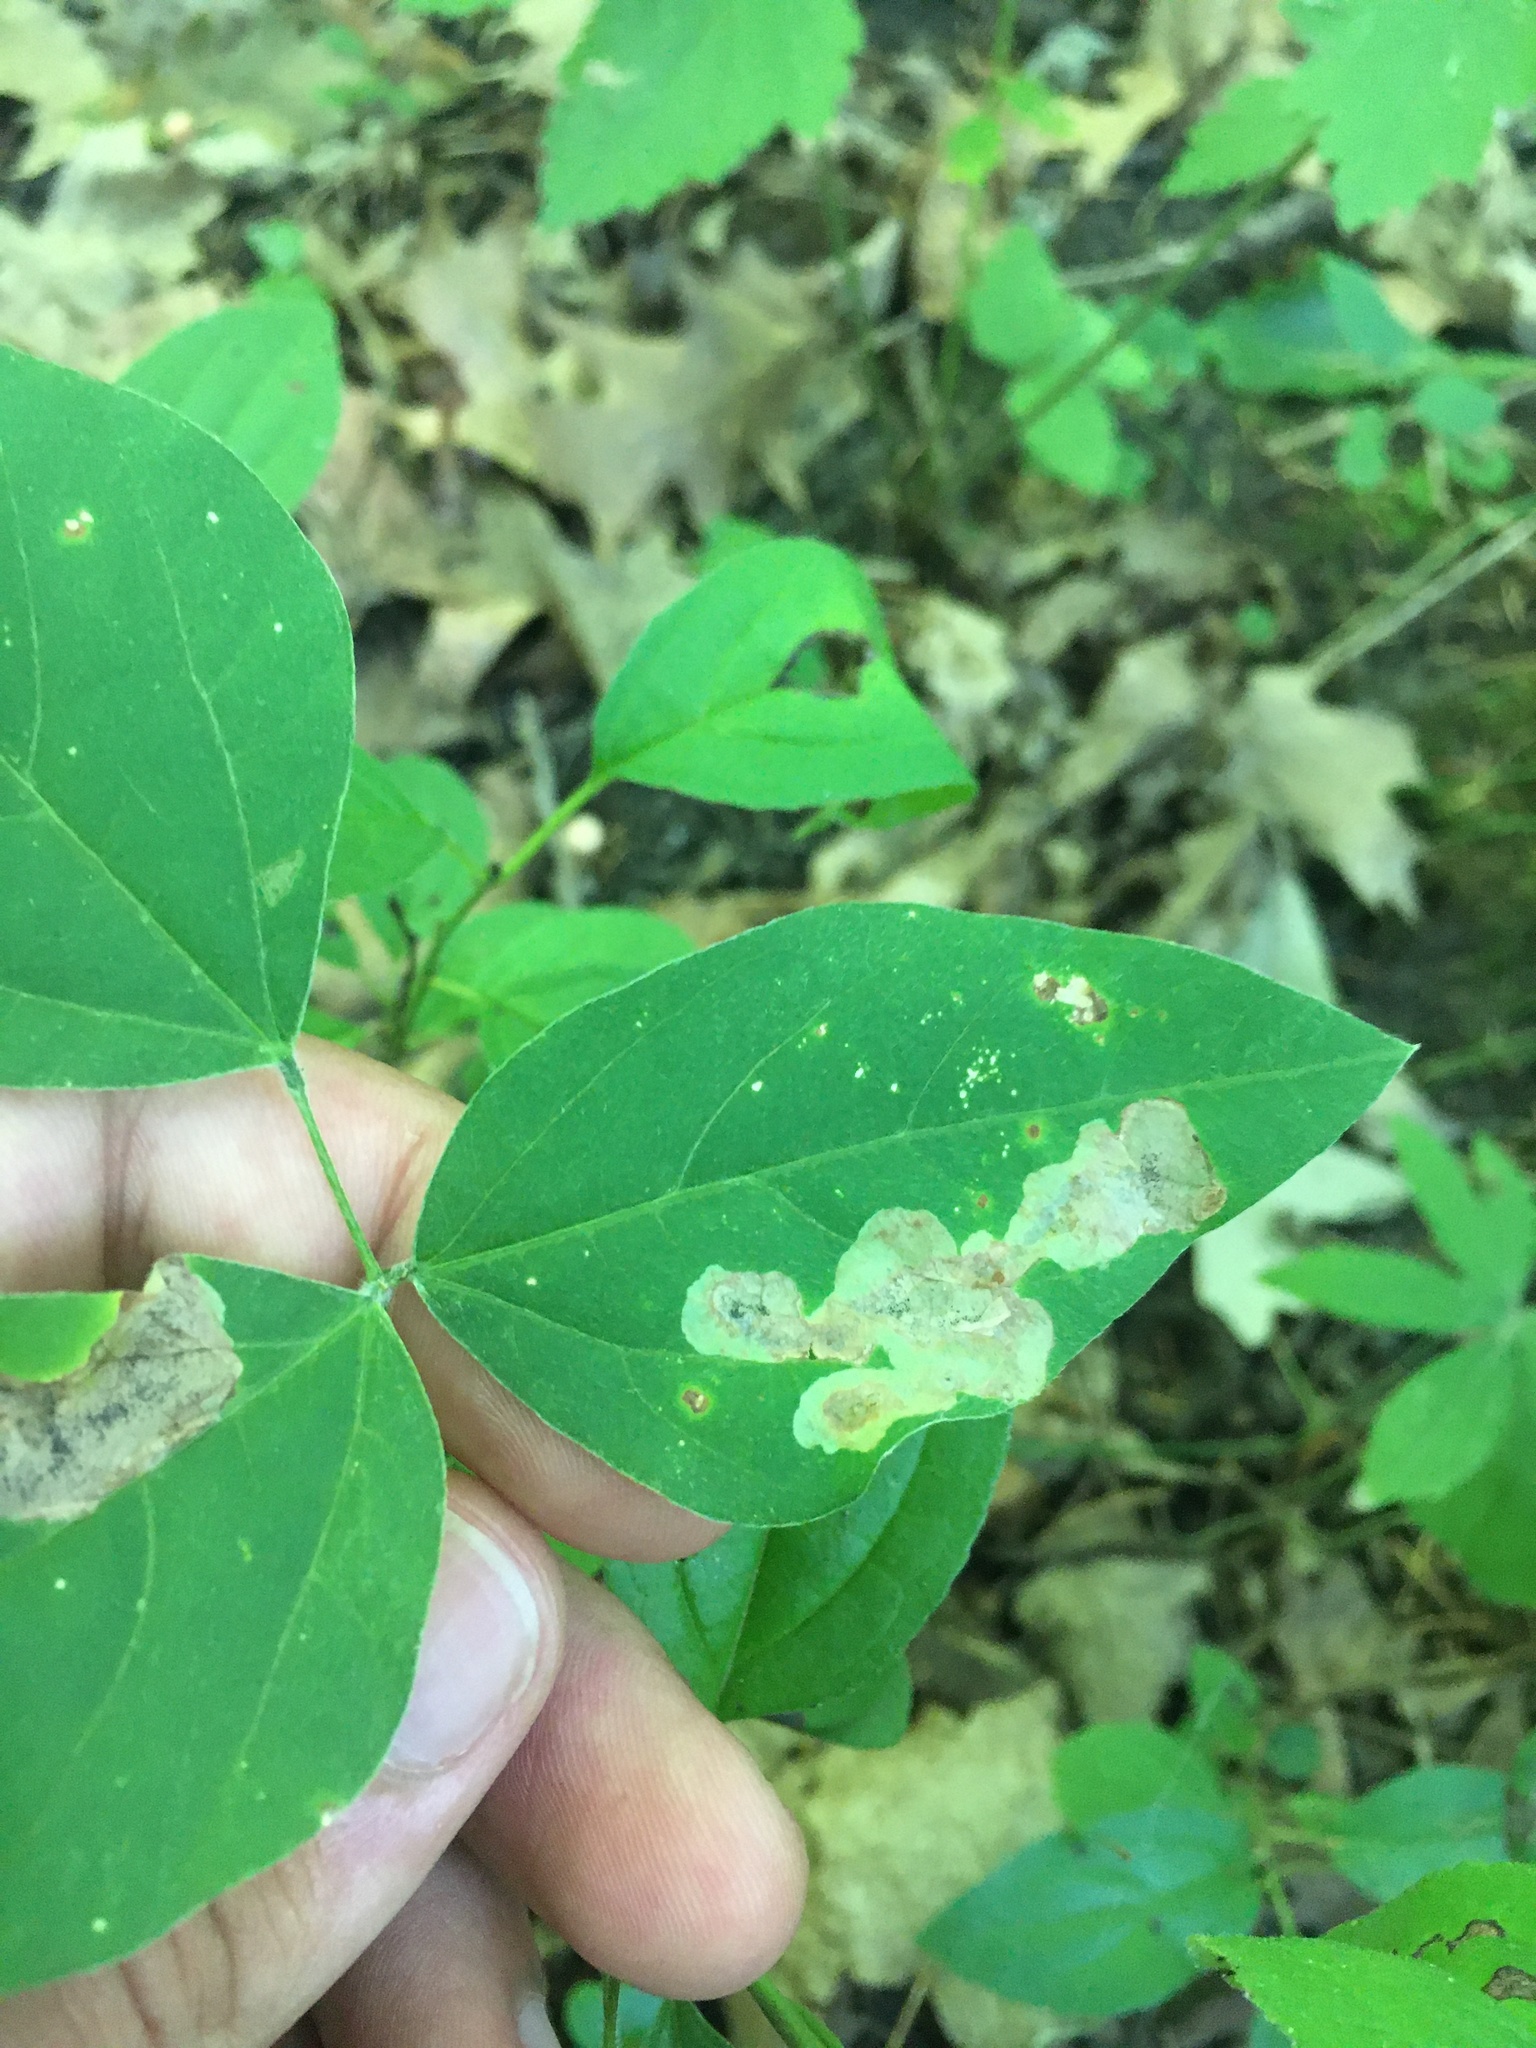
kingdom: Animalia
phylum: Arthropoda
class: Insecta
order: Lepidoptera
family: Gracillariidae
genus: Leucanthiza
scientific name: Leucanthiza amphicarpeaefoliella
